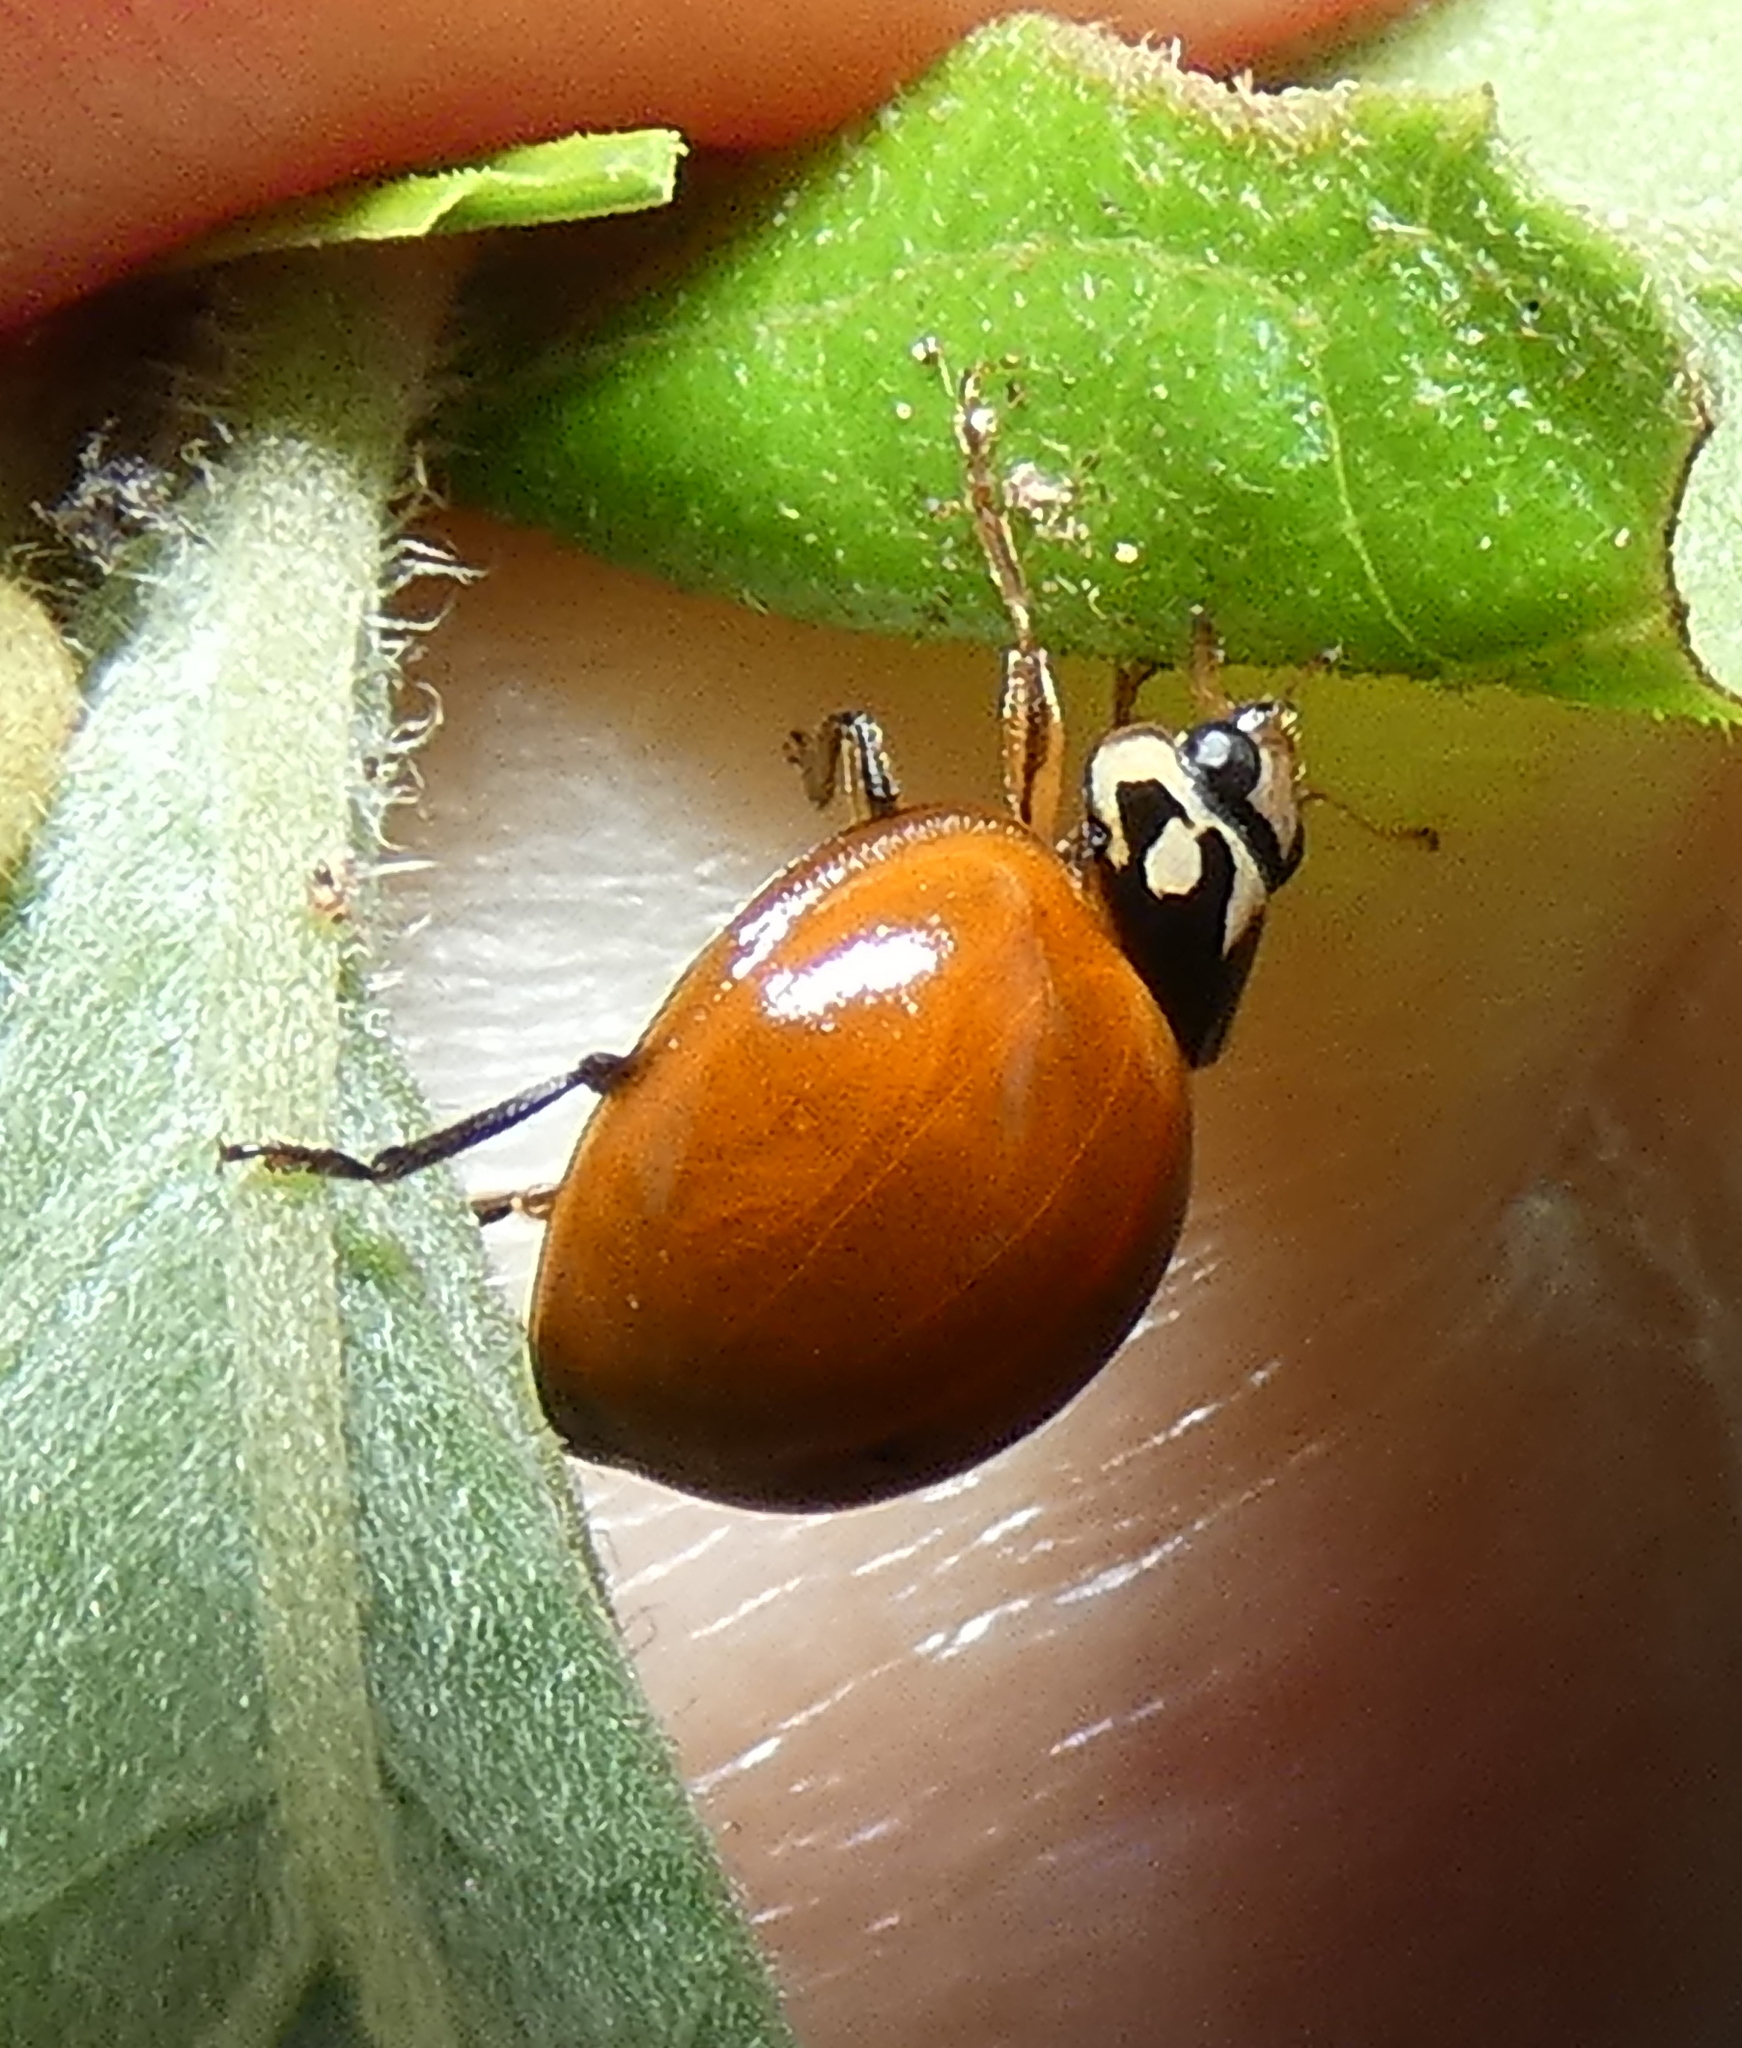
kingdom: Animalia
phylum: Arthropoda
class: Insecta
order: Coleoptera
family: Coccinellidae
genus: Cycloneda
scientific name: Cycloneda sanguinea
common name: Ladybird beetle
